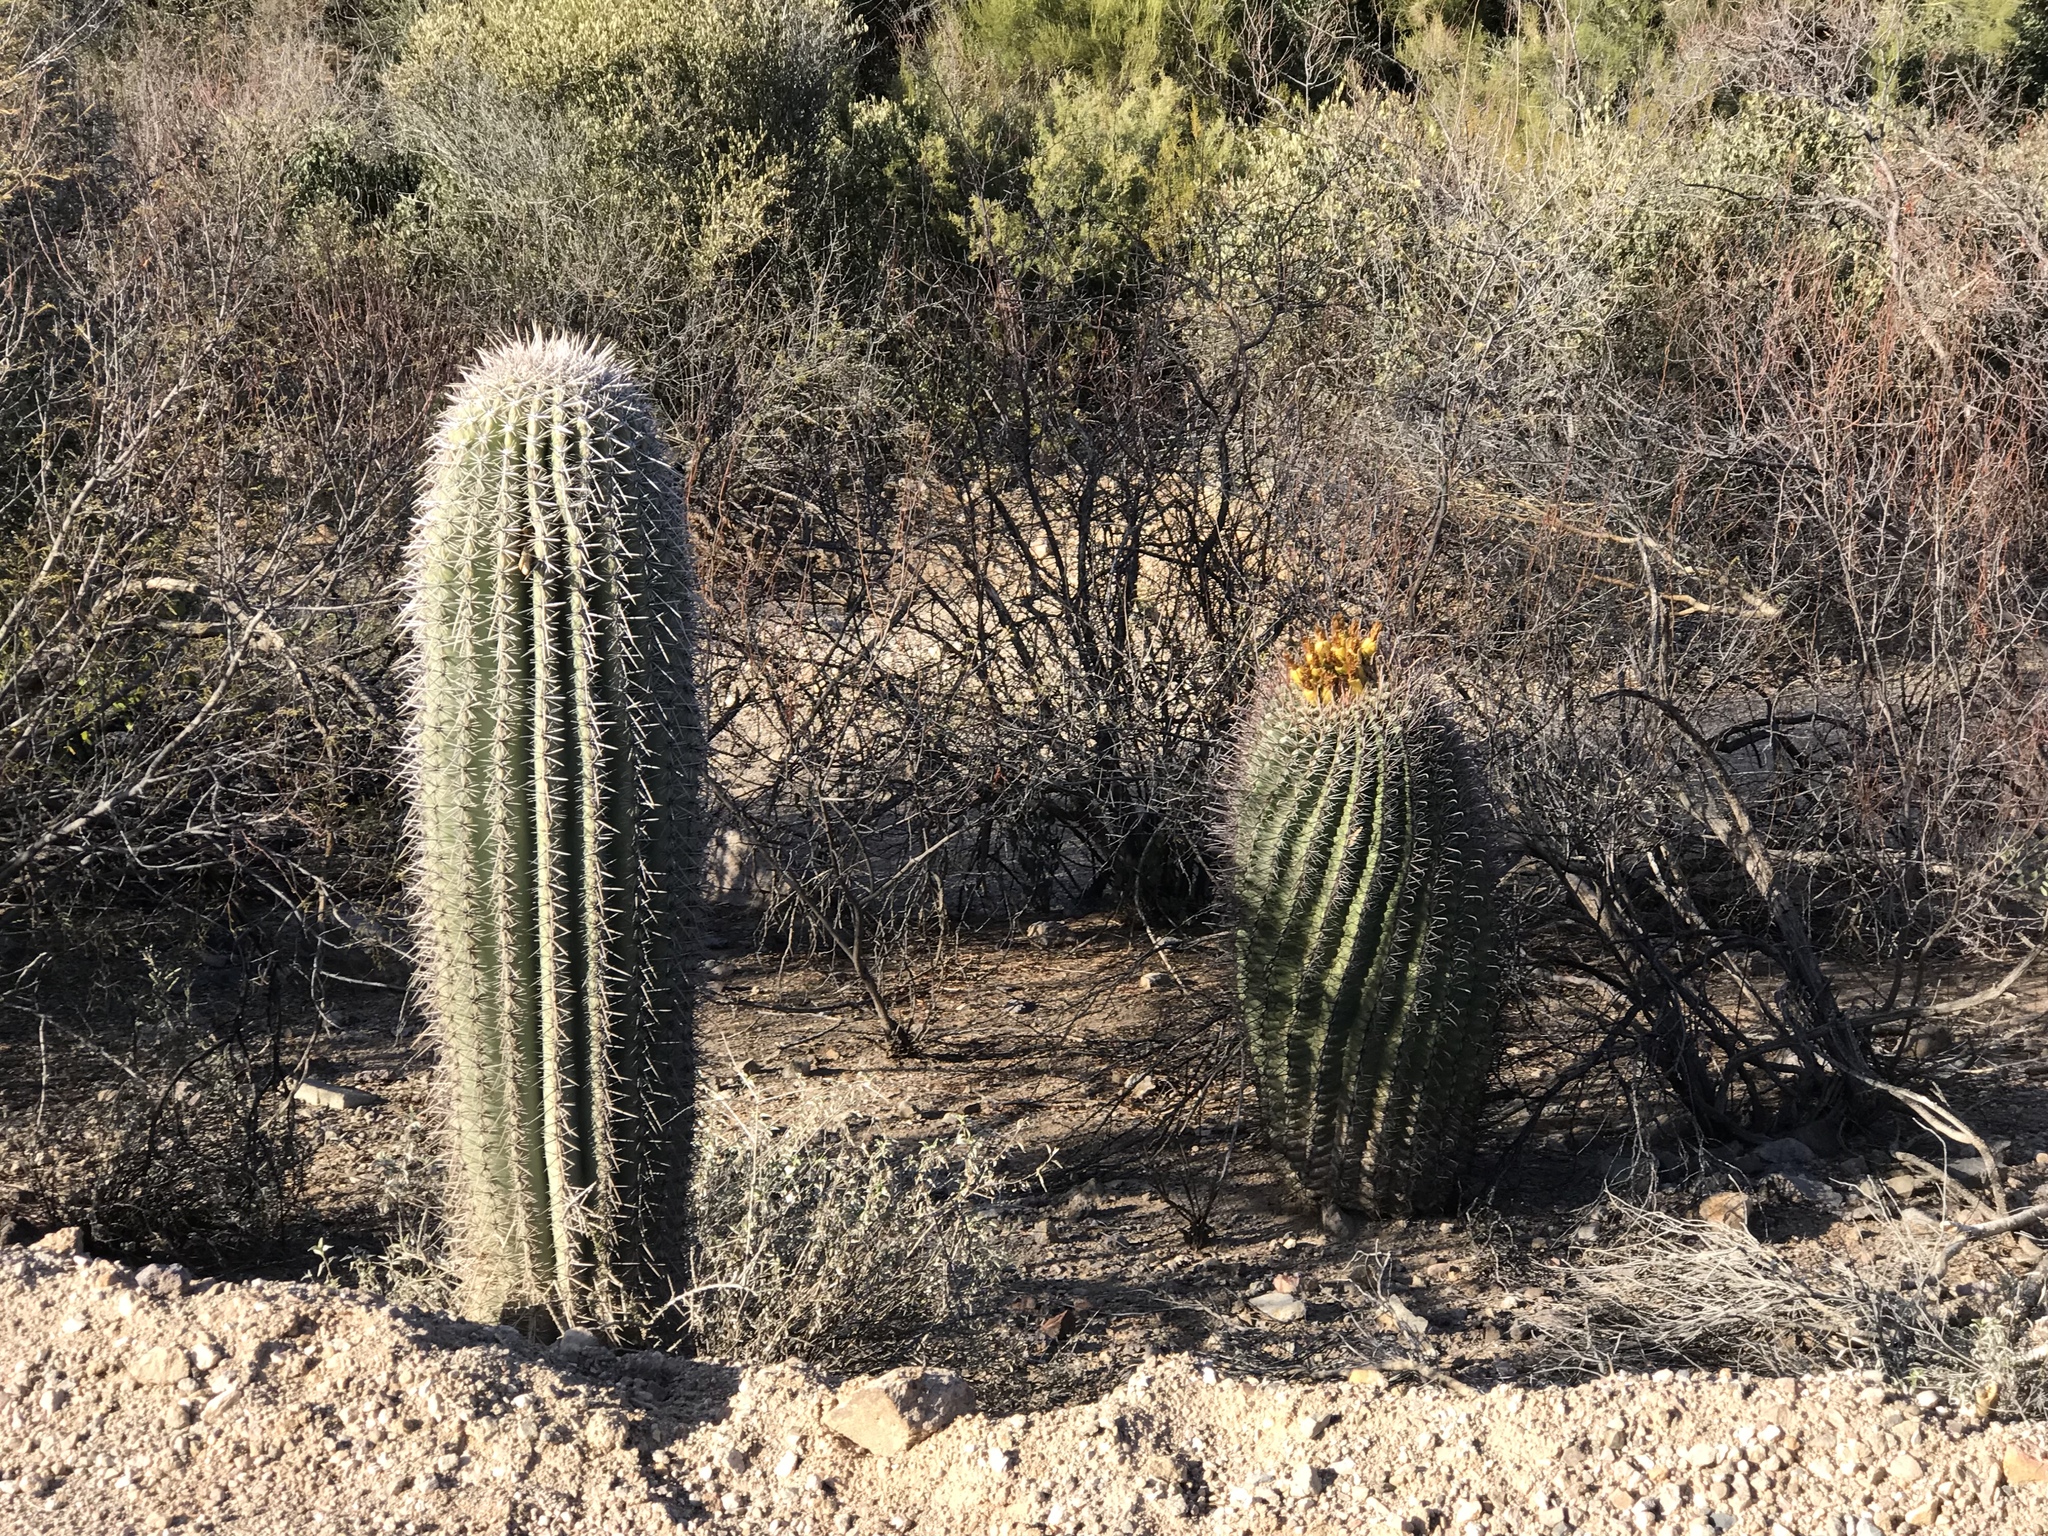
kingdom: Plantae
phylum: Tracheophyta
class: Magnoliopsida
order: Caryophyllales
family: Cactaceae
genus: Carnegiea
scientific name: Carnegiea gigantea
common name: Saguaro
